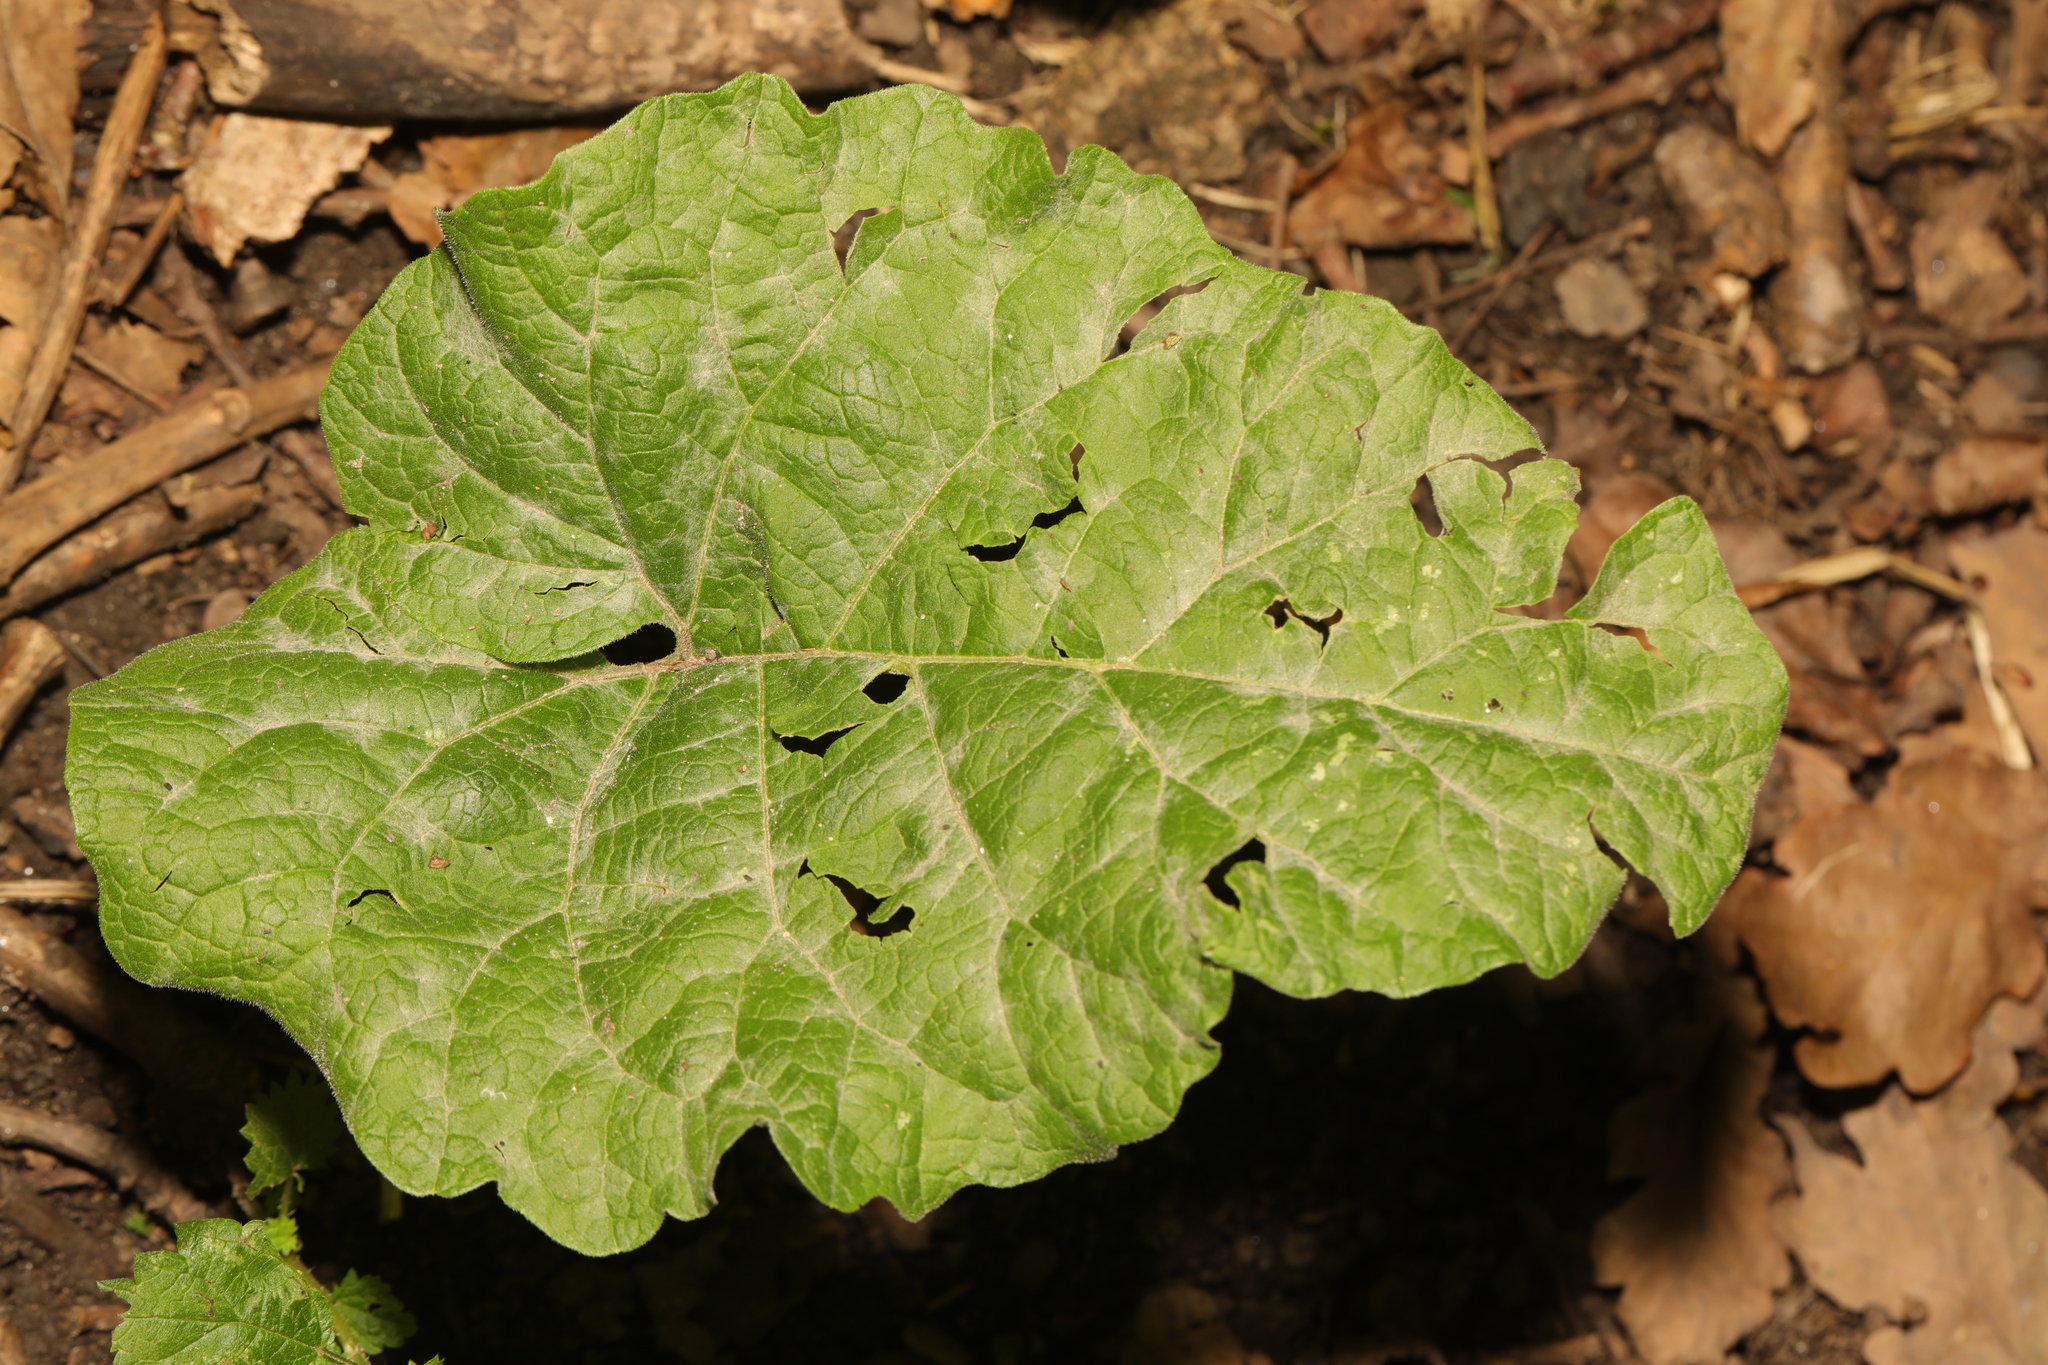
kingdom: Plantae
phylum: Tracheophyta
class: Magnoliopsida
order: Asterales
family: Asteraceae
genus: Arctium
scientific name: Arctium minus
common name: Lesser burdock
